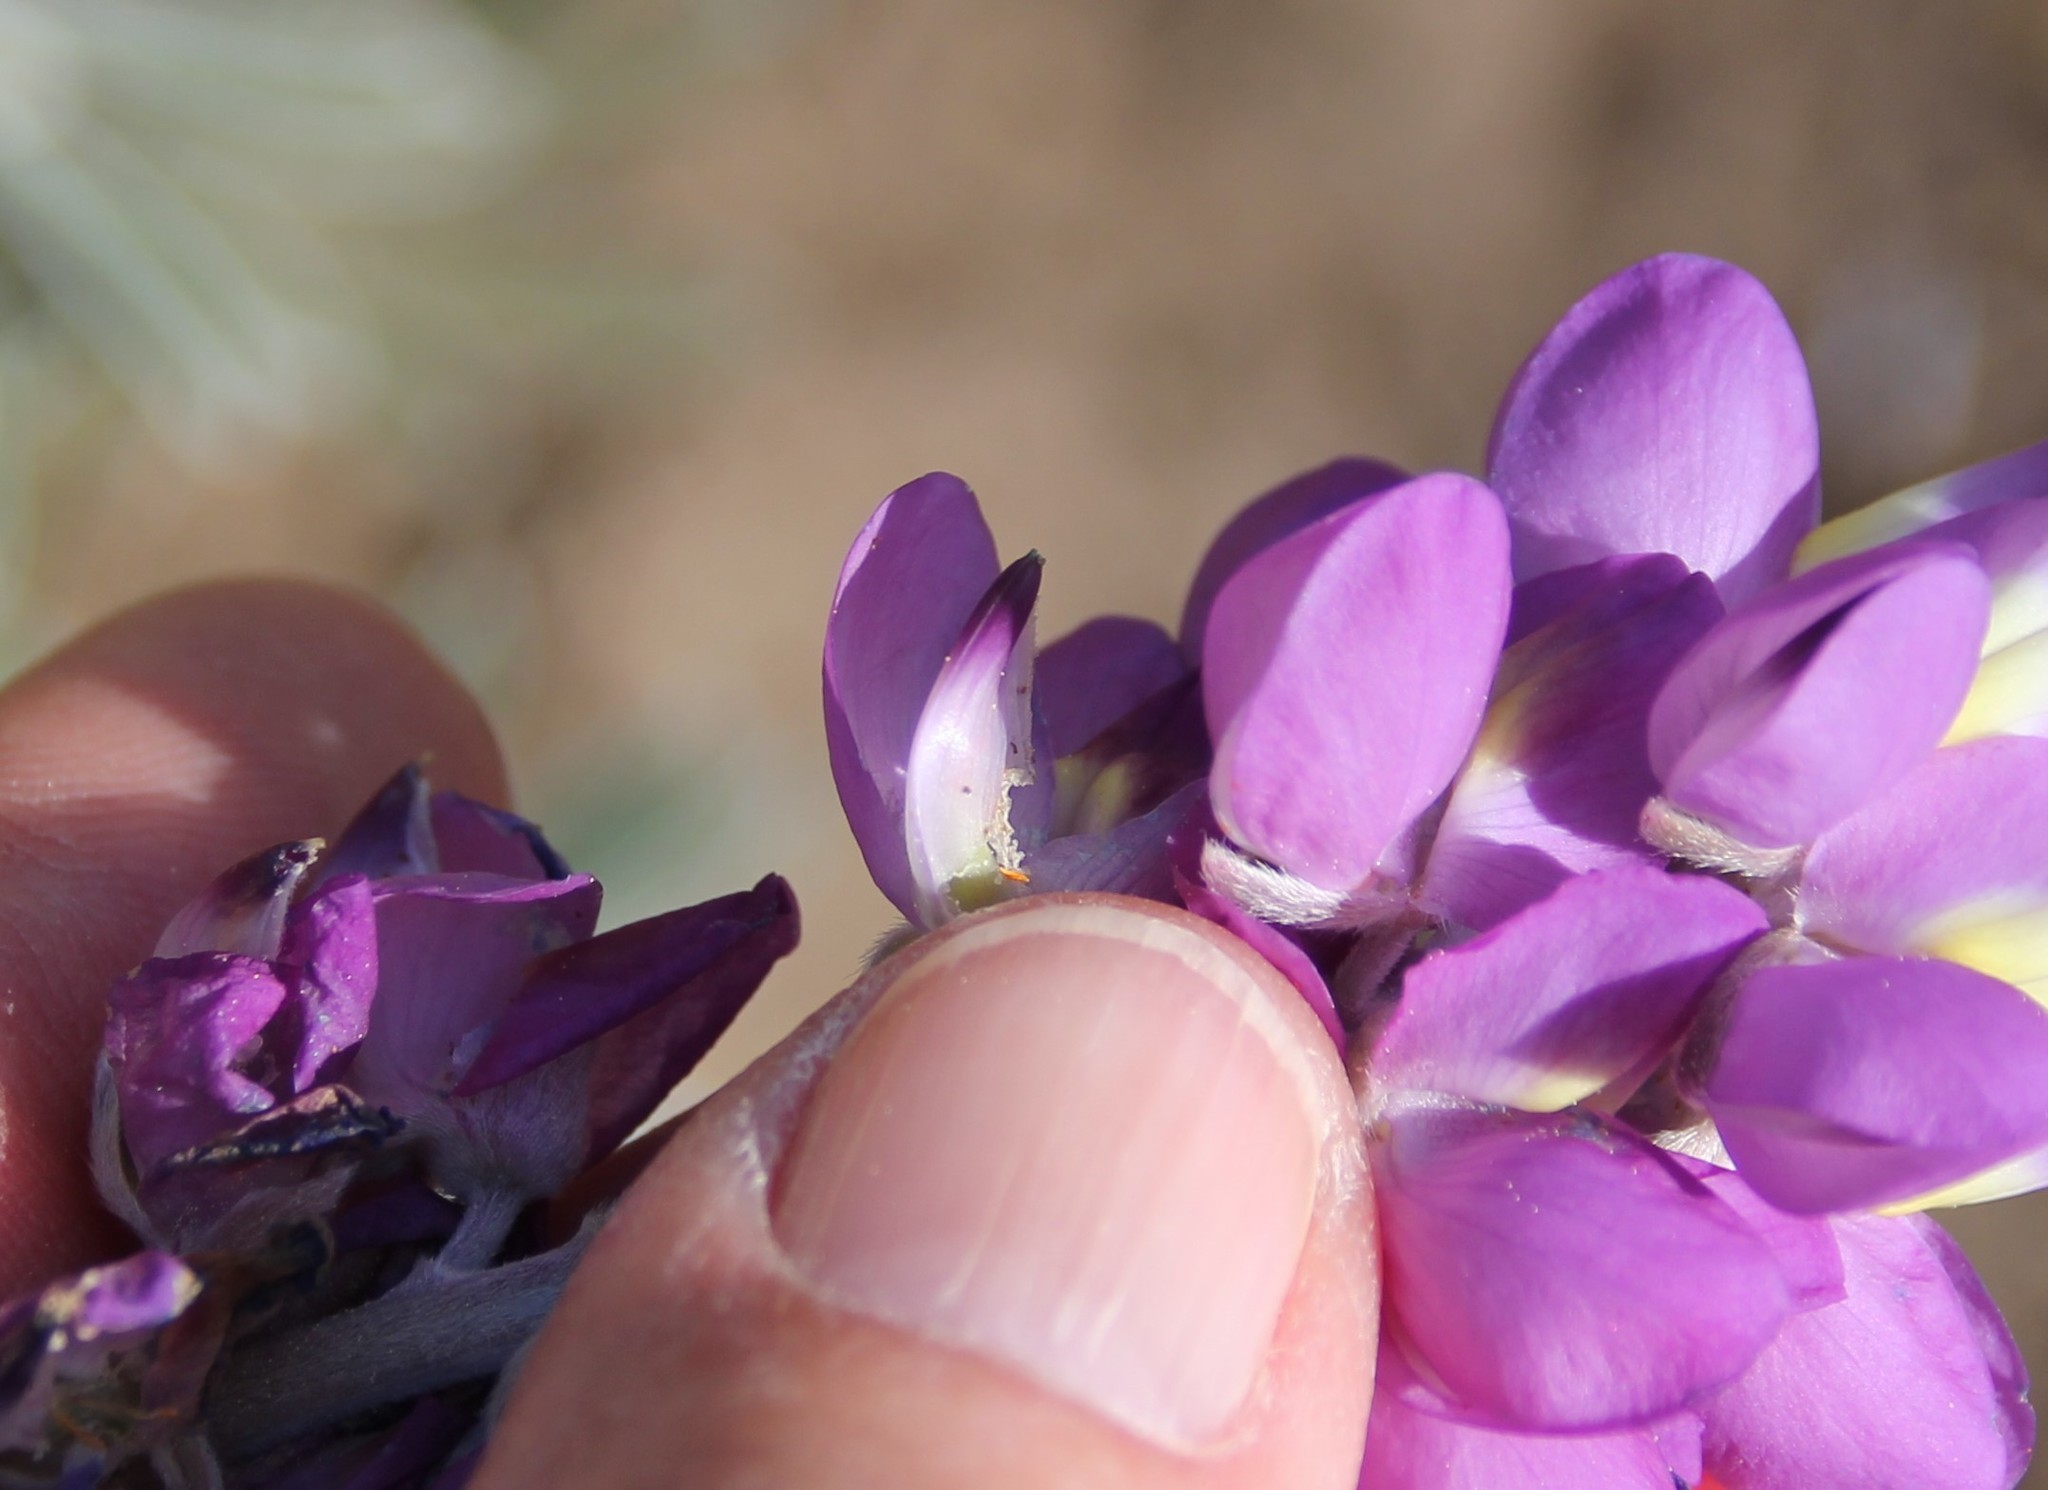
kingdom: Plantae
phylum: Tracheophyta
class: Magnoliopsida
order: Fabales
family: Fabaceae
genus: Lupinus
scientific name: Lupinus excubitus
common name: Grape soda lupine
